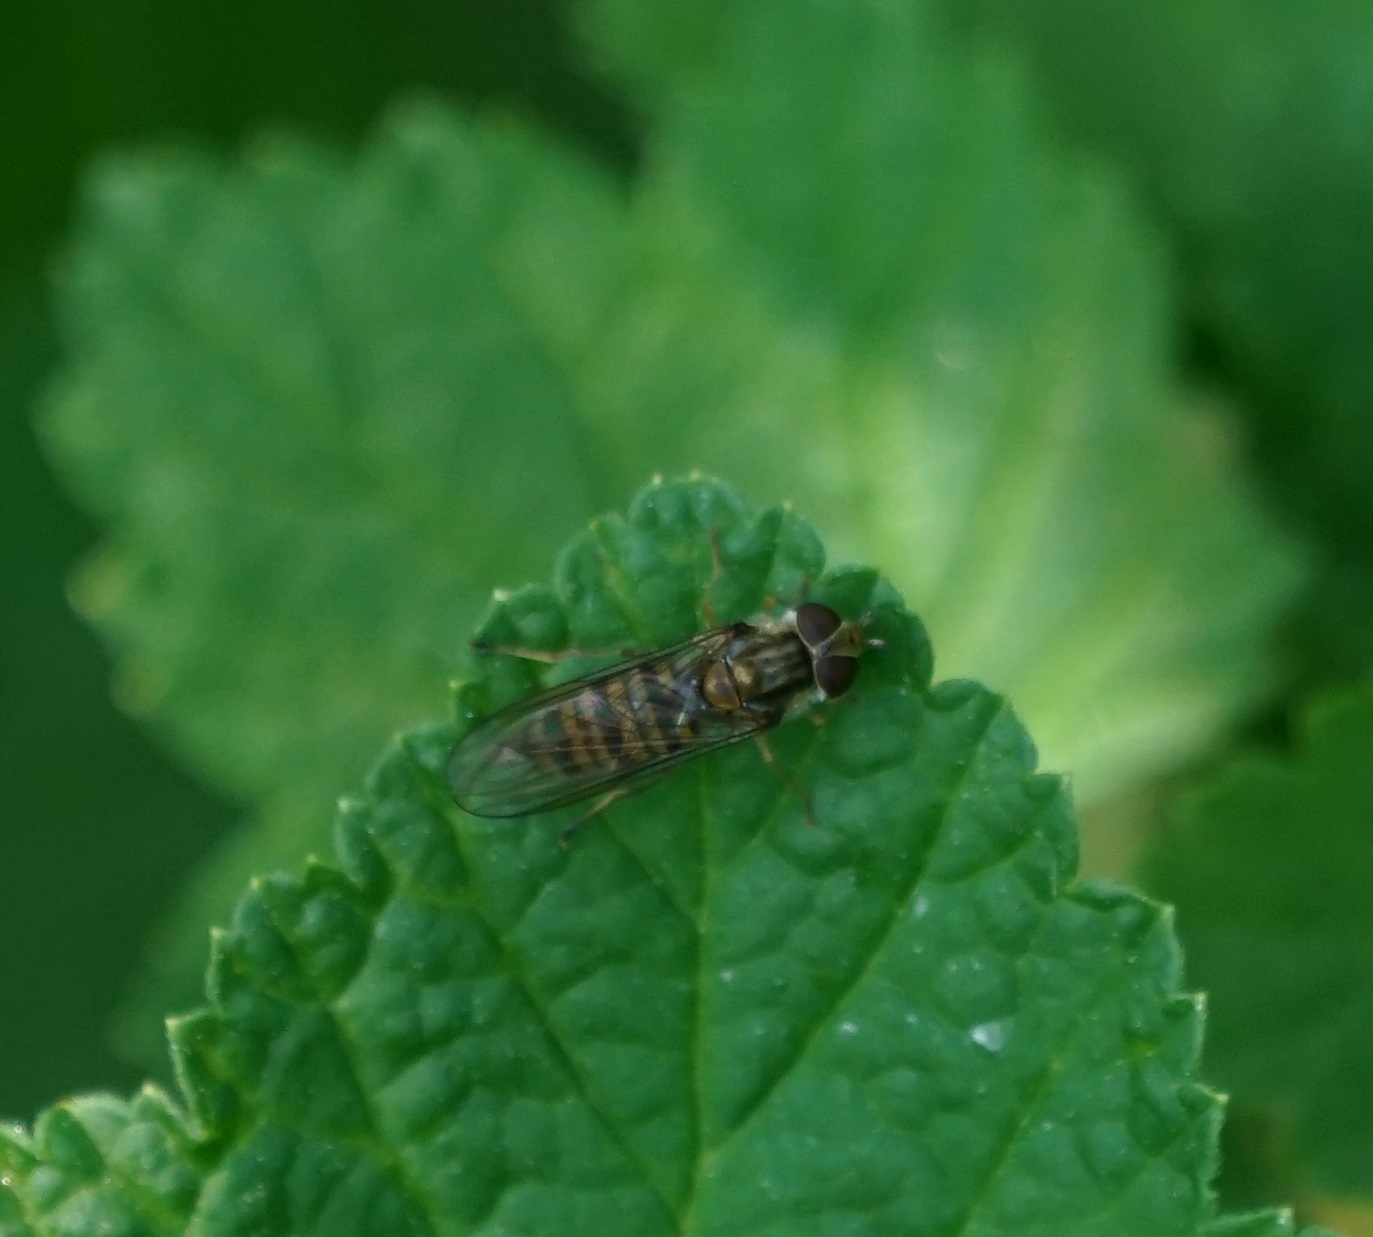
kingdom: Animalia
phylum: Arthropoda
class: Insecta
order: Diptera
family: Syrphidae
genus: Episyrphus
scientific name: Episyrphus balteatus
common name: Marmalade hoverfly
